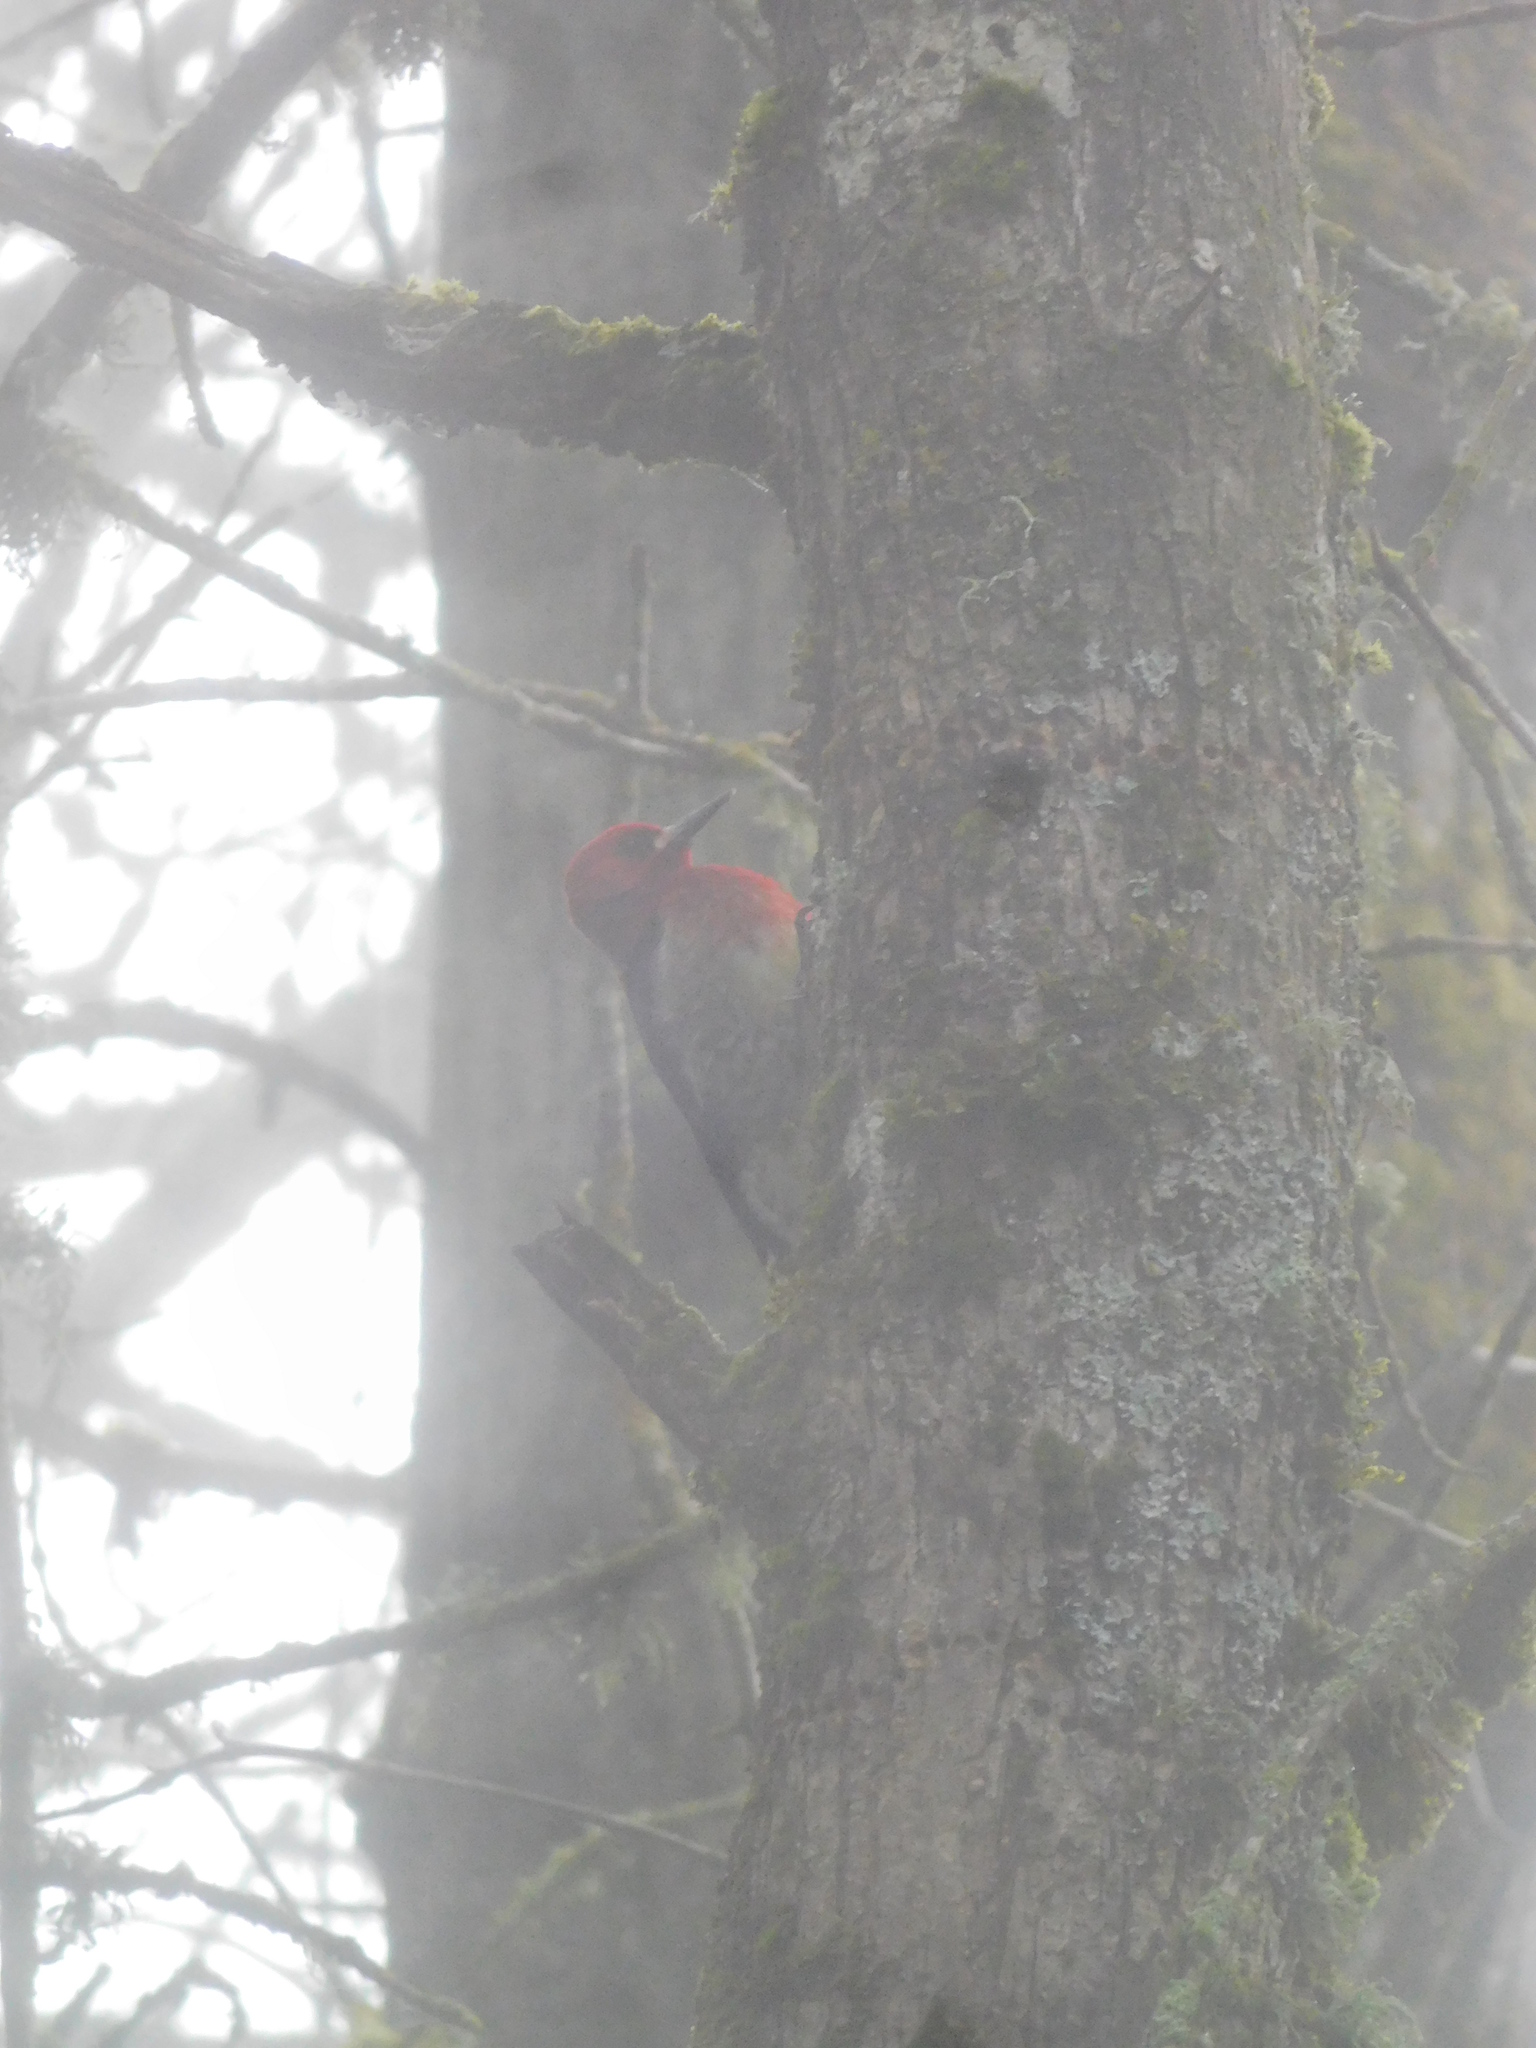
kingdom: Animalia
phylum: Chordata
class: Aves
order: Piciformes
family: Picidae
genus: Sphyrapicus
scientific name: Sphyrapicus ruber
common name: Red-breasted sapsucker
